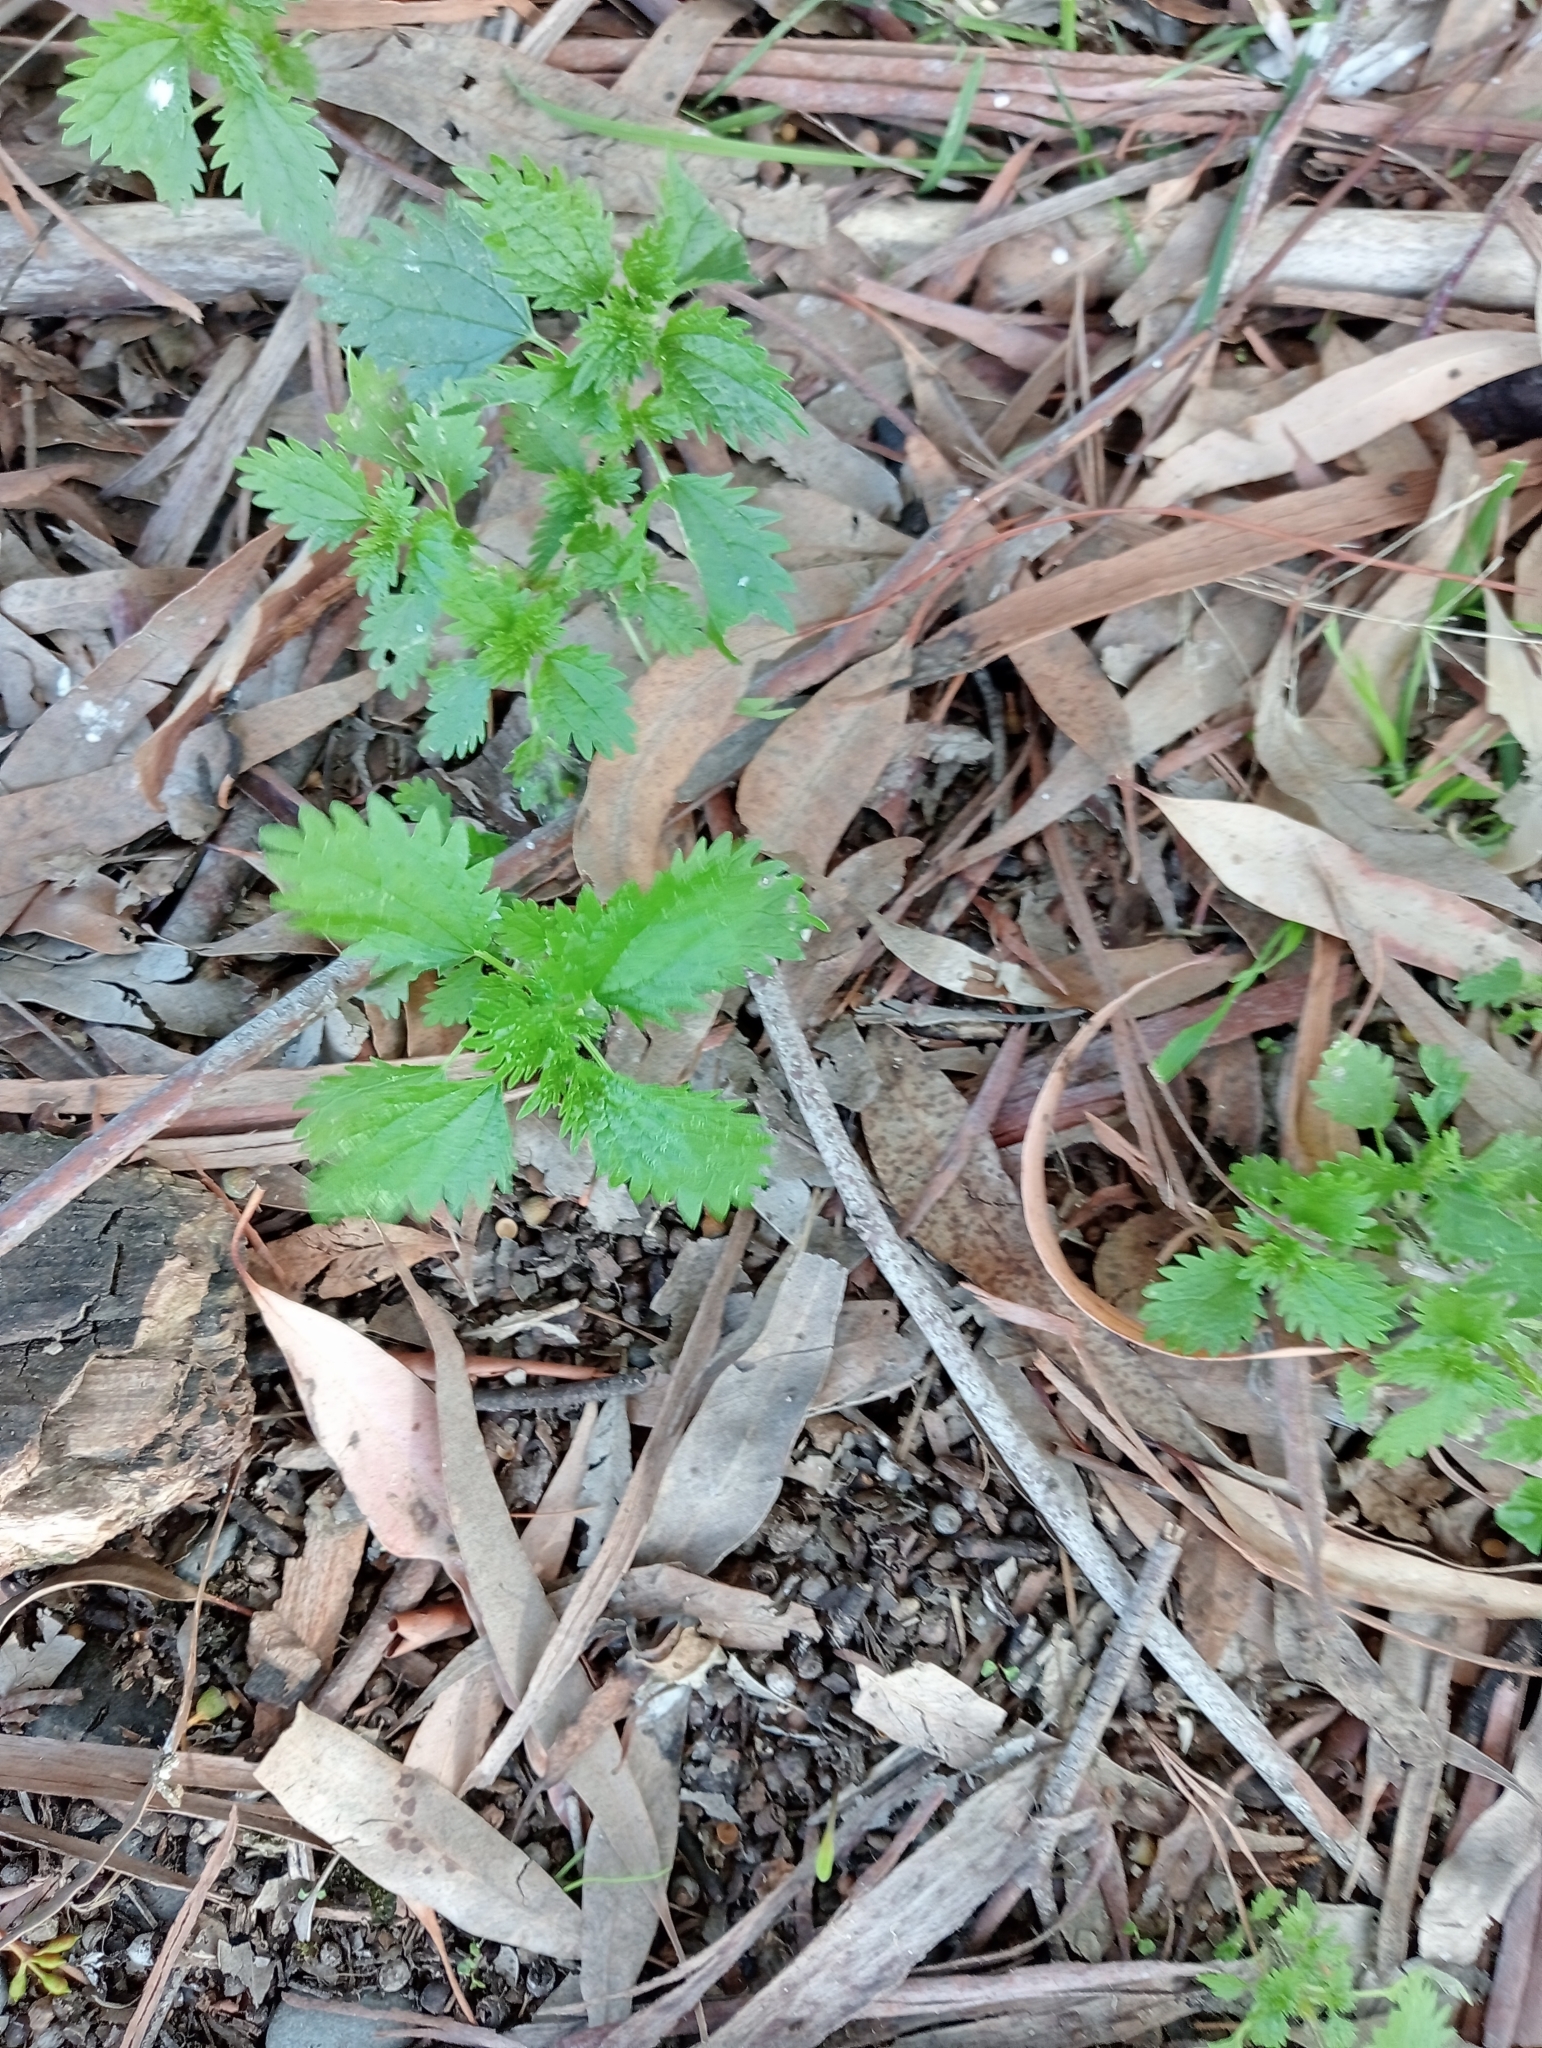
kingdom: Plantae
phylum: Tracheophyta
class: Magnoliopsida
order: Rosales
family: Urticaceae
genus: Urtica
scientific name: Urtica urens
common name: Dwarf nettle
